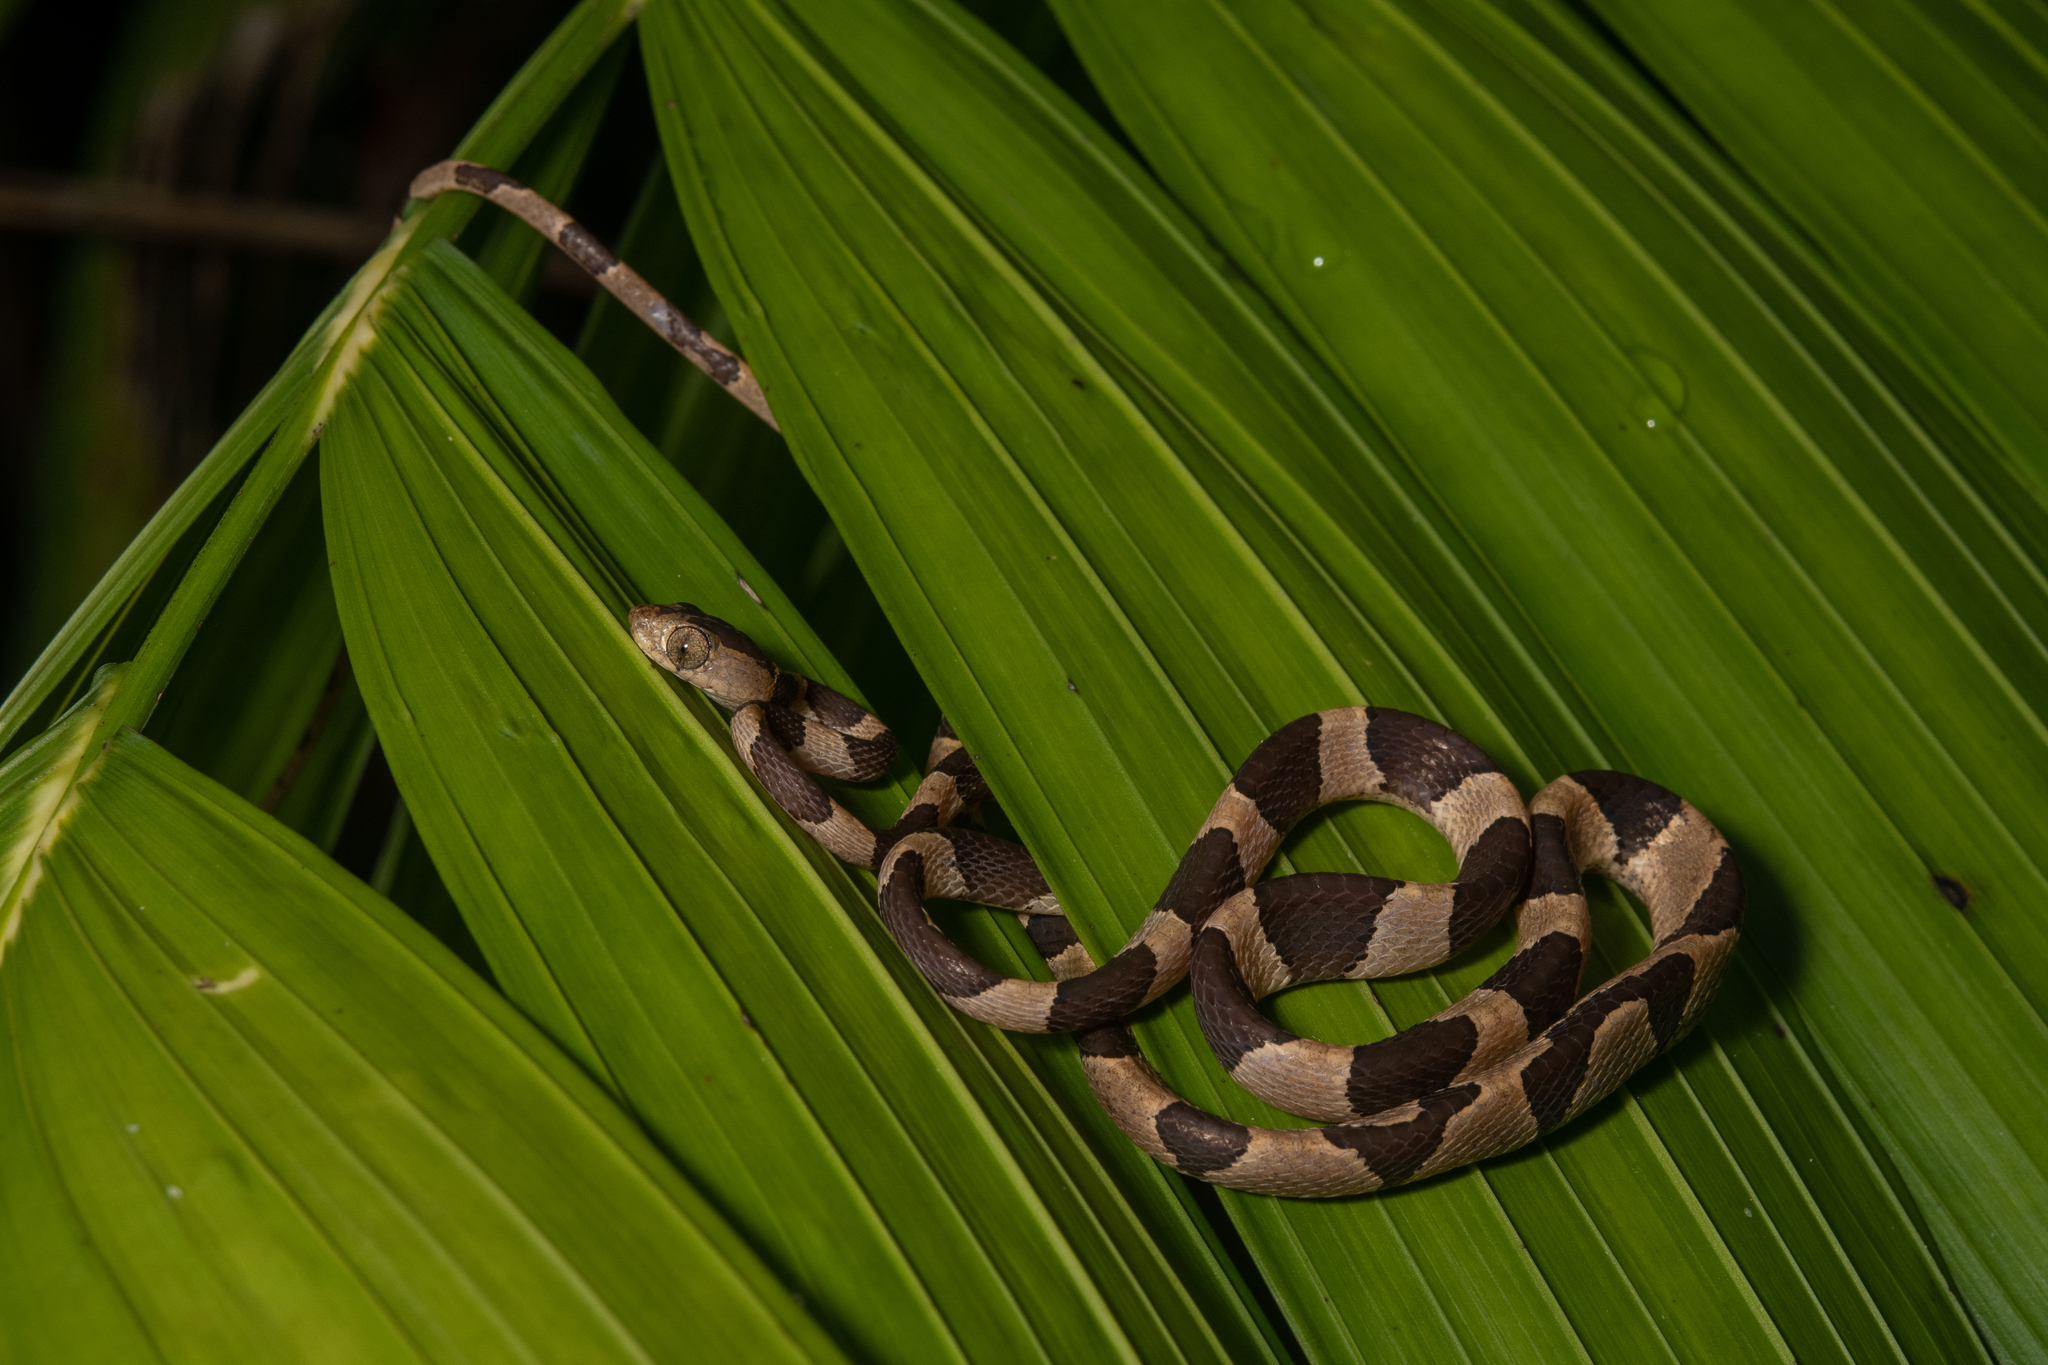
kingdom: Animalia
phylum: Chordata
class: Squamata
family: Colubridae
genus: Imantodes
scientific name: Imantodes cenchoa
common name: Blunthead tree snake
